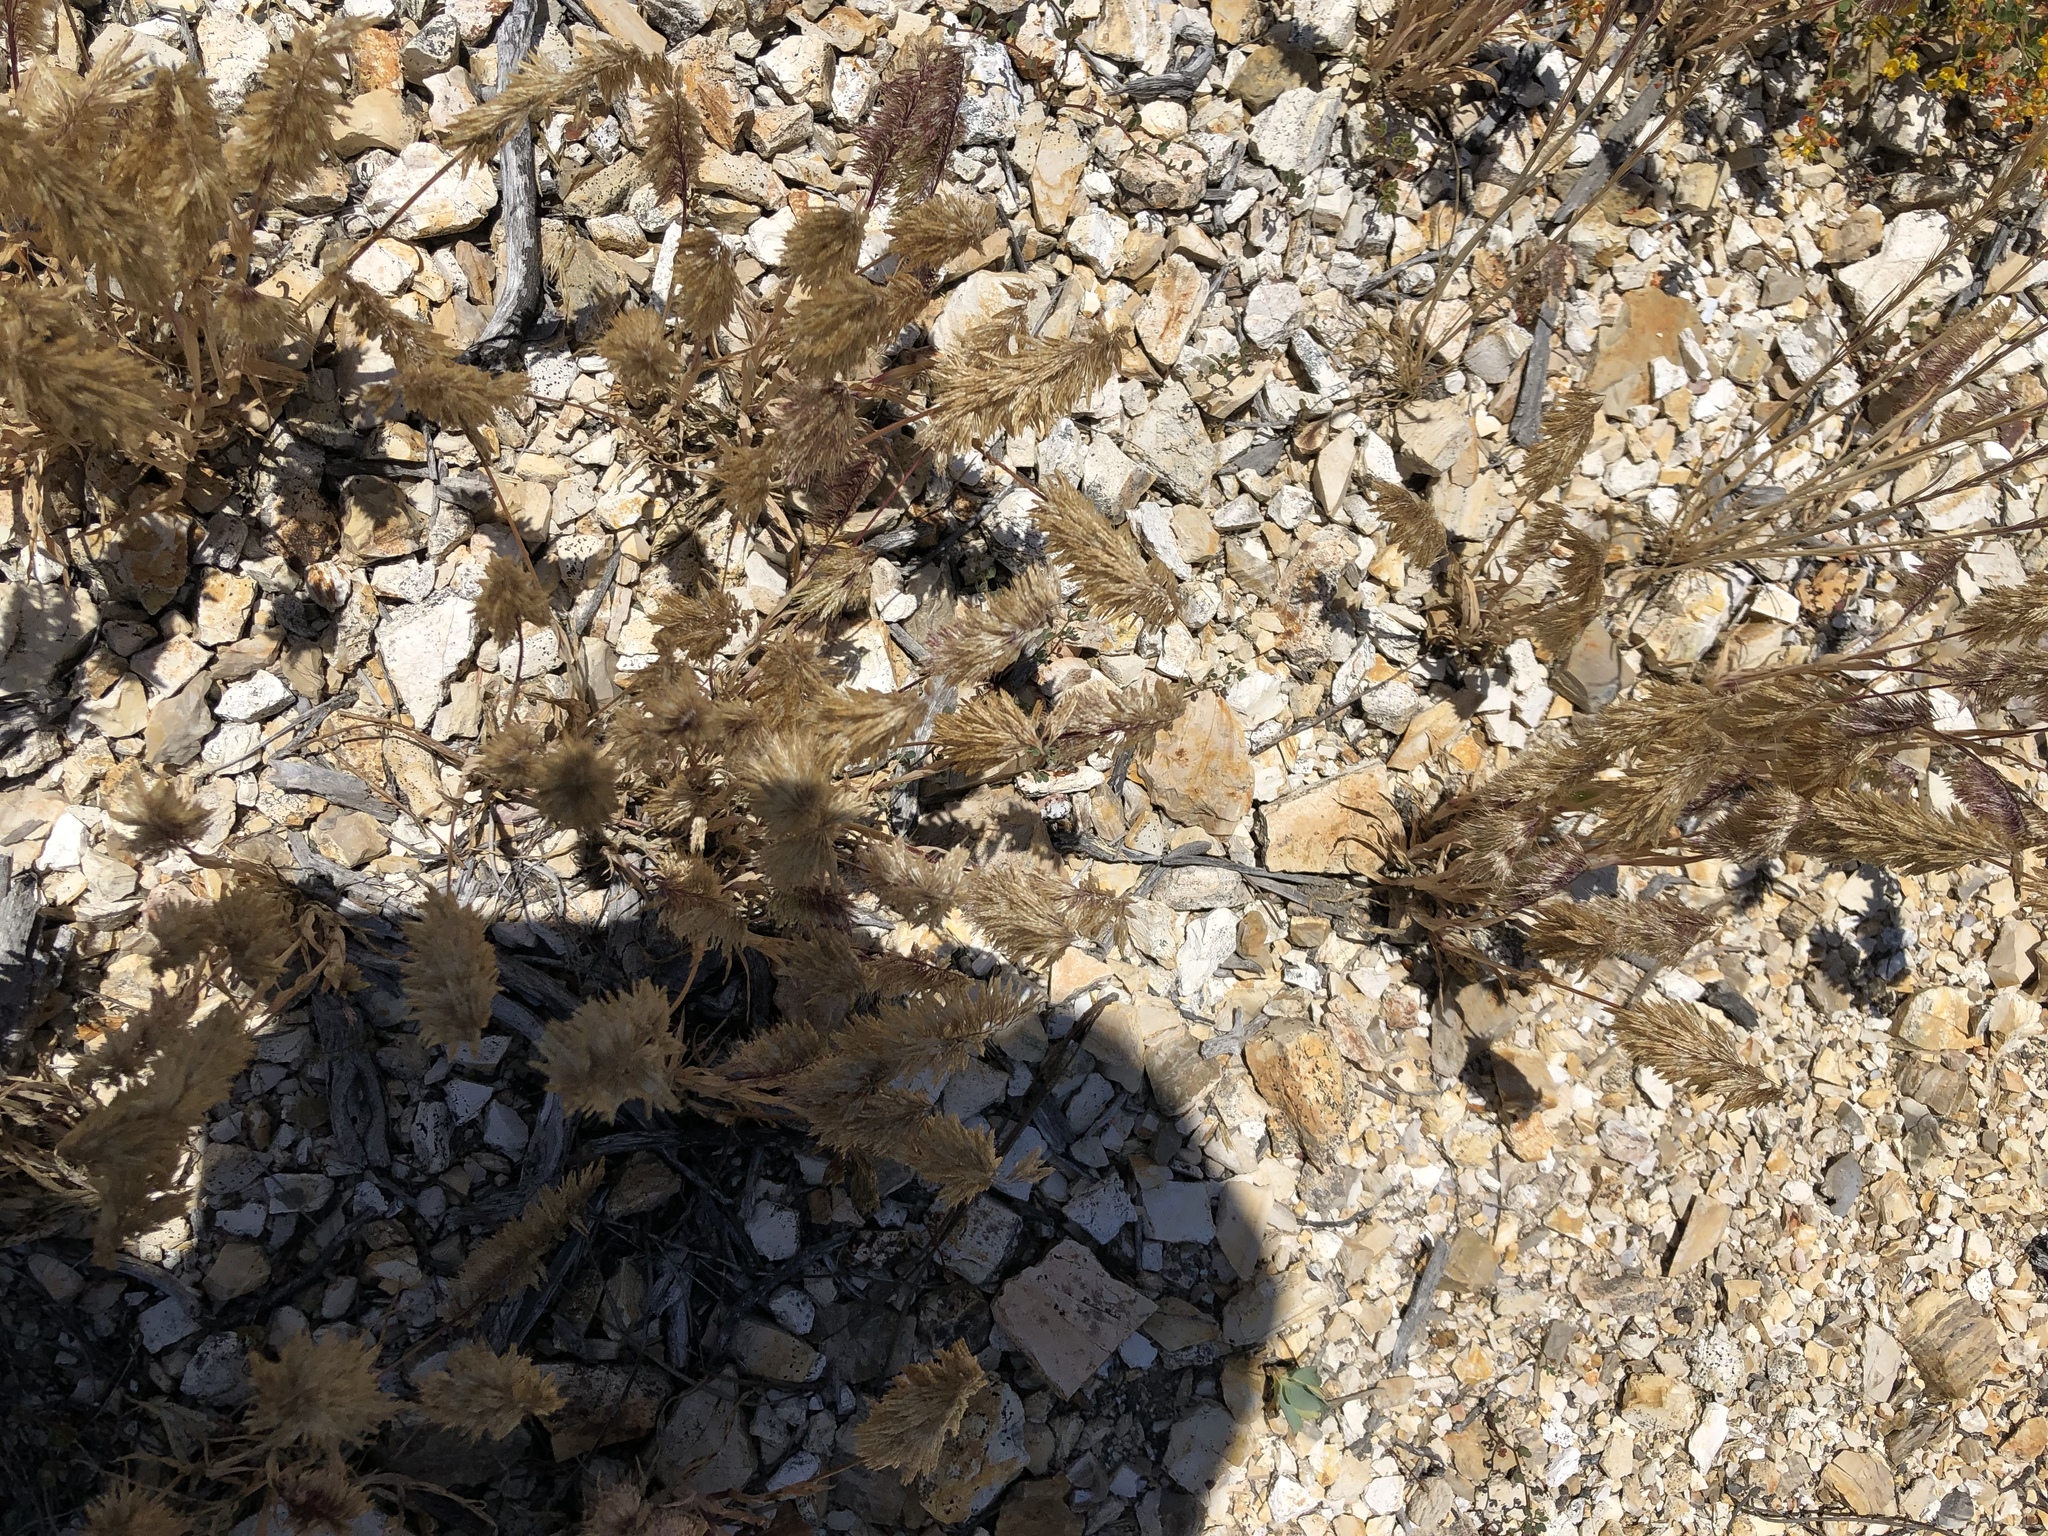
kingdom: Plantae
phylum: Tracheophyta
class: Liliopsida
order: Poales
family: Poaceae
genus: Lamarckia
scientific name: Lamarckia aurea
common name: Golden dog's-tail
